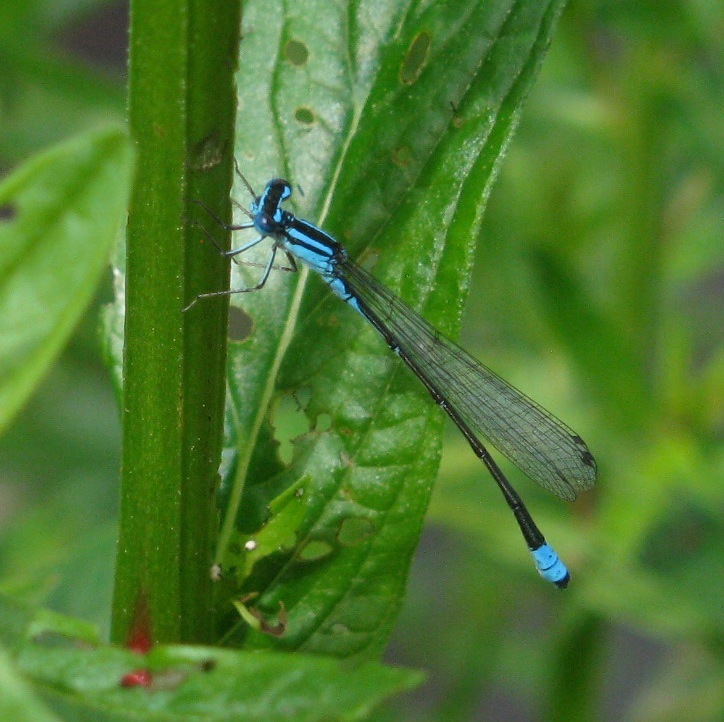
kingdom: Animalia
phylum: Arthropoda
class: Insecta
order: Odonata
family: Coenagrionidae
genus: Enallagma
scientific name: Enallagma divagans
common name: Turquoise bluet
